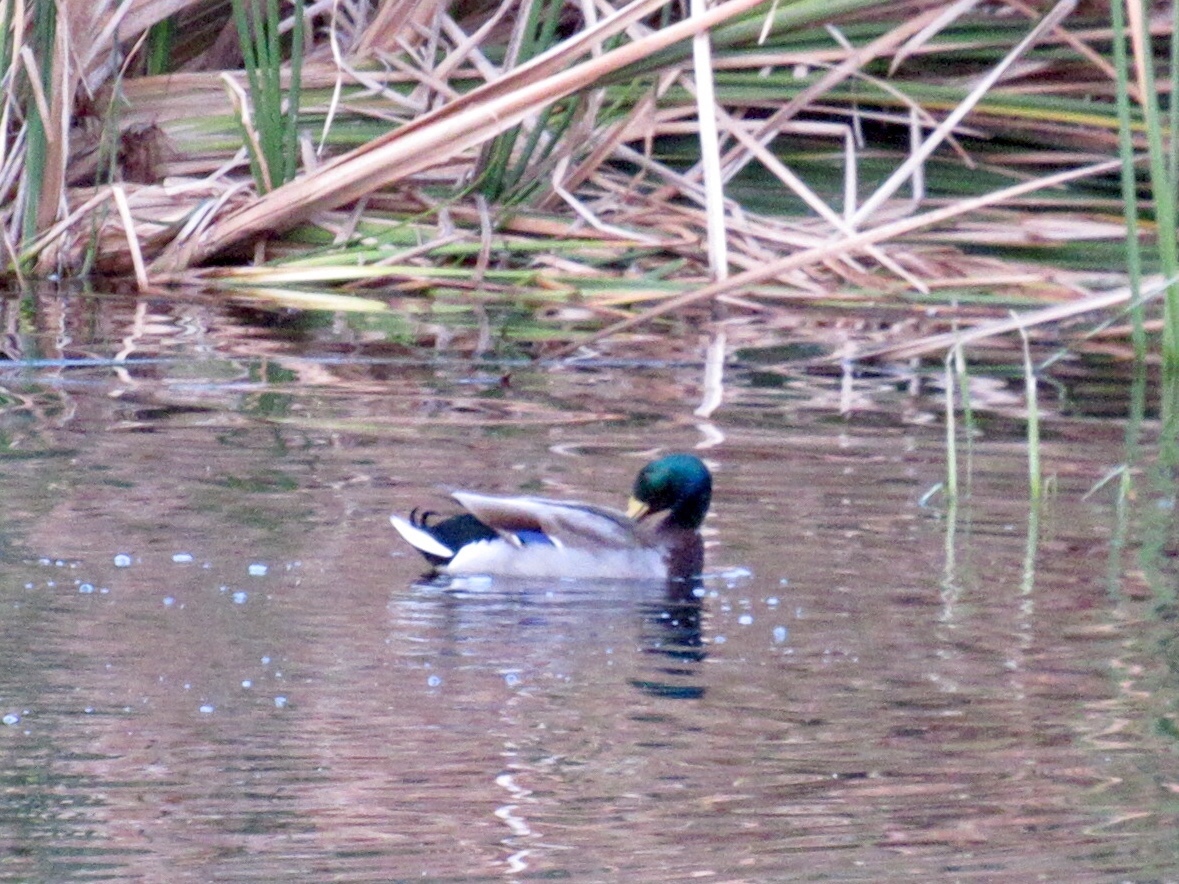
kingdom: Animalia
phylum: Chordata
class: Aves
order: Anseriformes
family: Anatidae
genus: Anas
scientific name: Anas platyrhynchos
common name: Mallard
